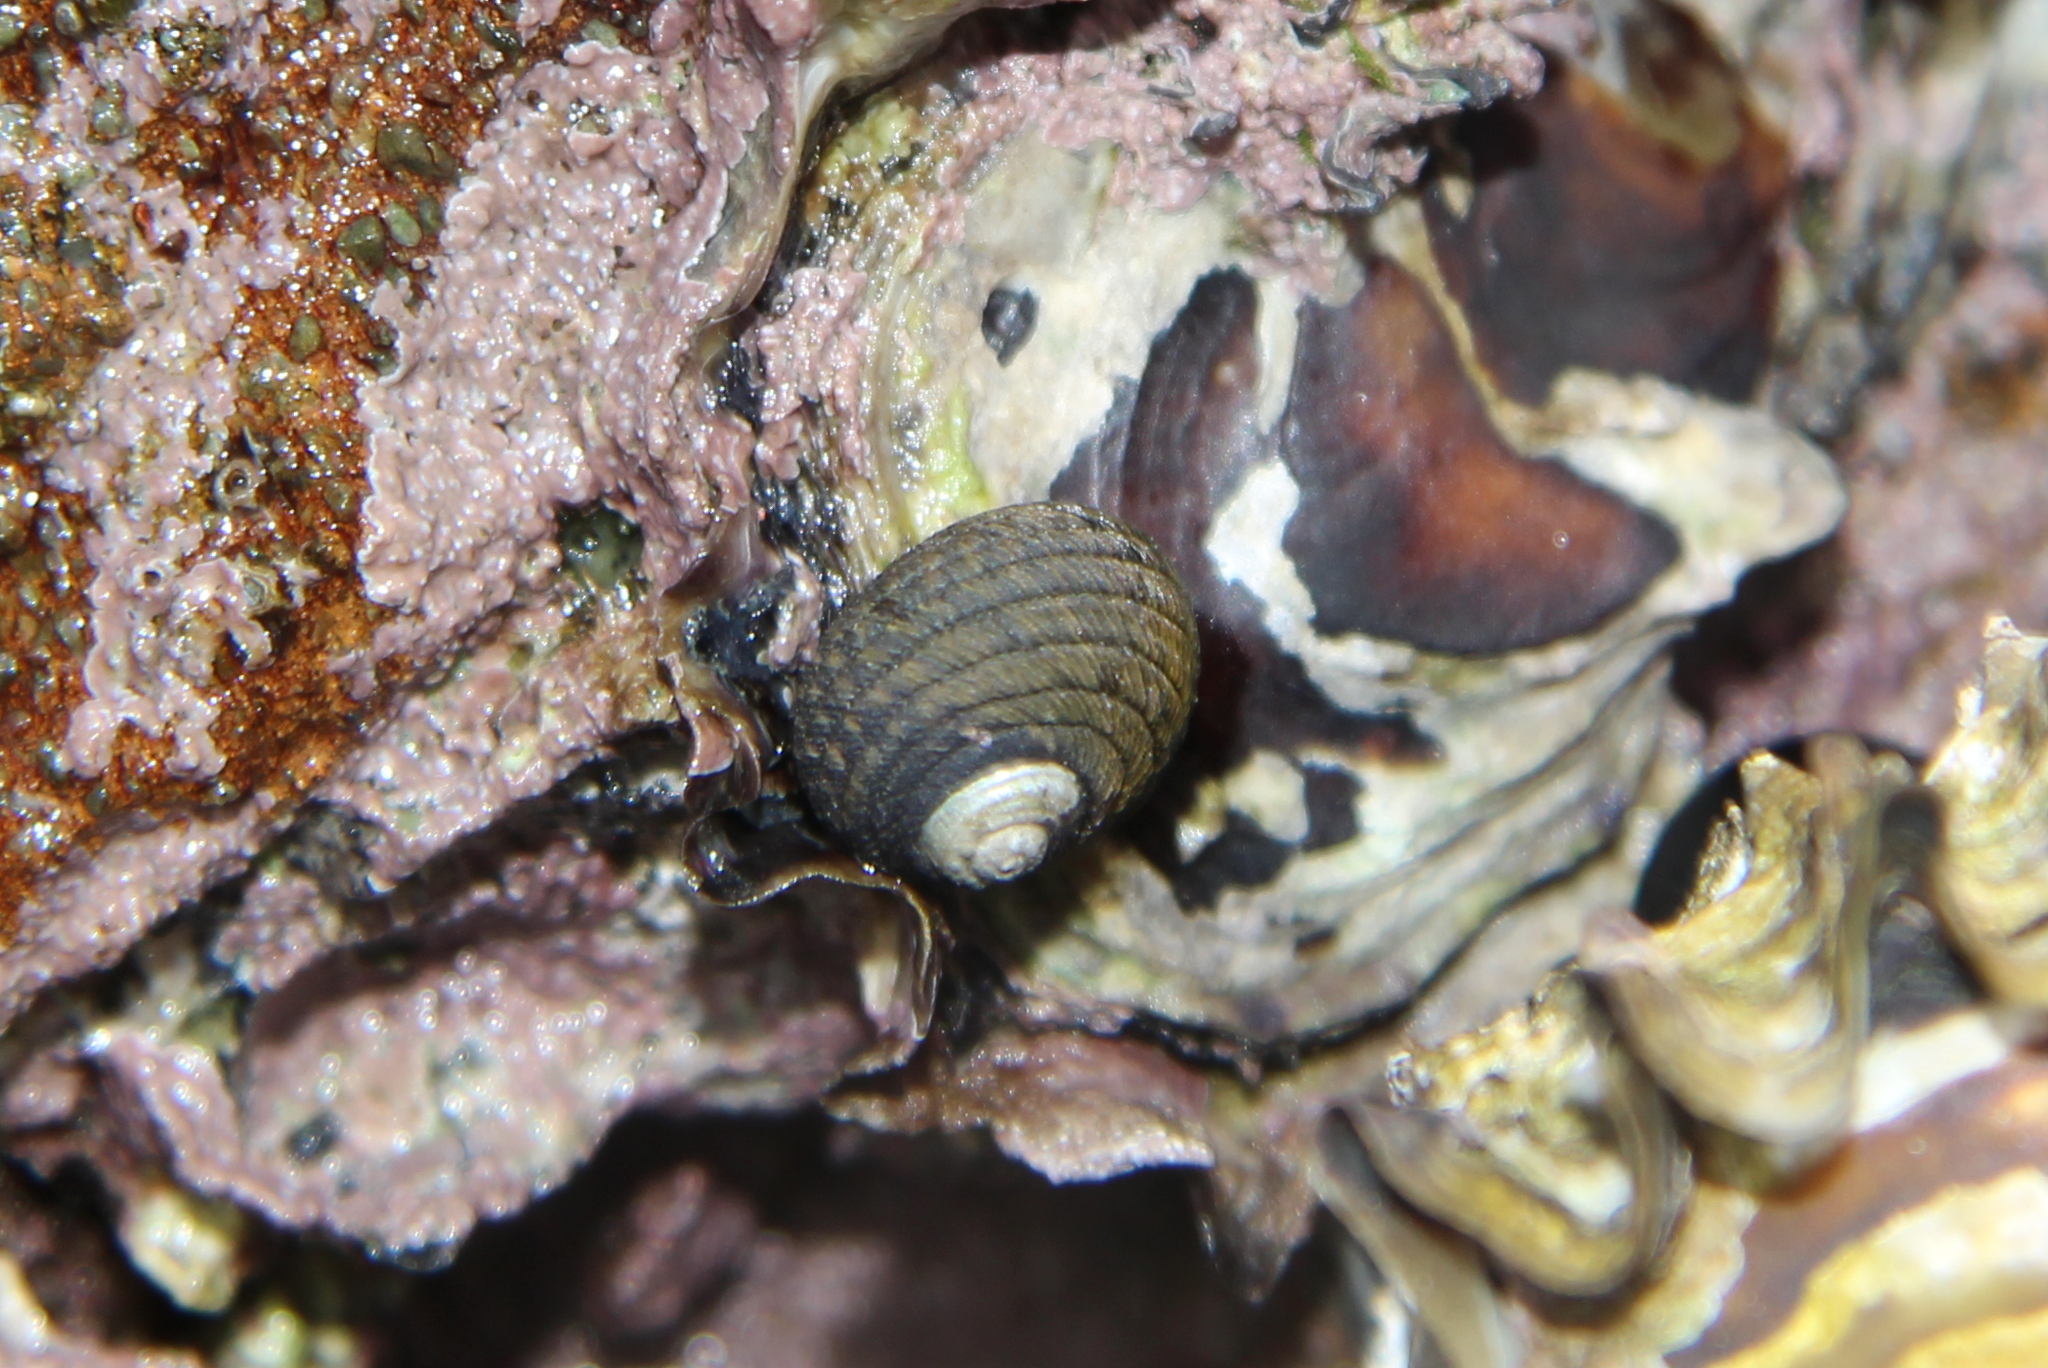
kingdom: Animalia
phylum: Mollusca
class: Gastropoda
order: Trochida
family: Trochidae
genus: Diloma
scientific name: Diloma aethiops
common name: Scorched monodont
